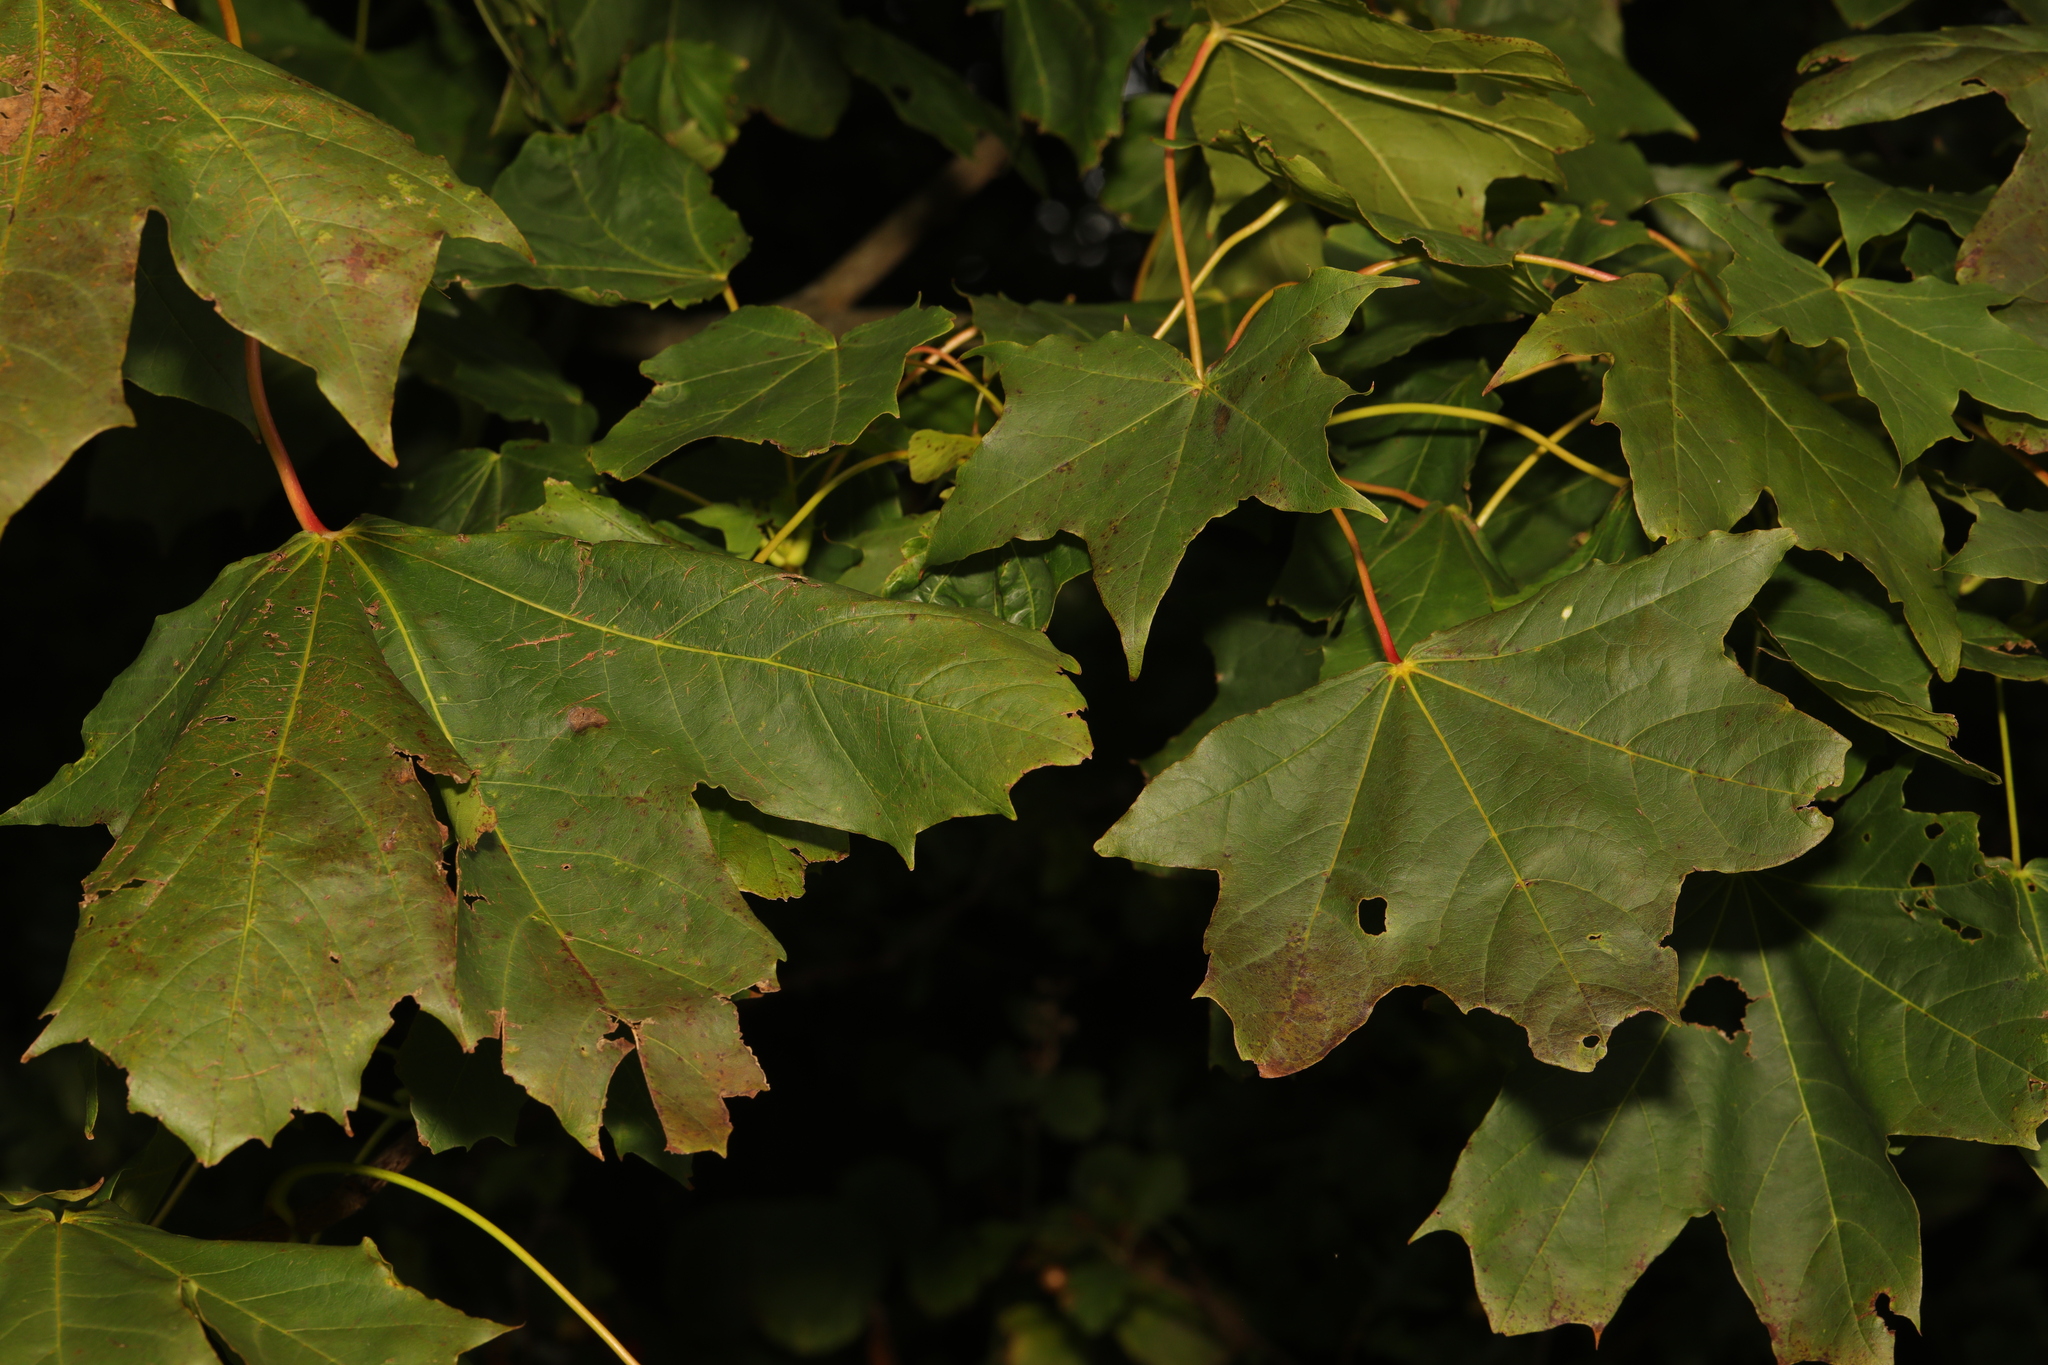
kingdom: Plantae
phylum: Tracheophyta
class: Magnoliopsida
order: Sapindales
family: Sapindaceae
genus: Acer
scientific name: Acer platanoides
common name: Norway maple
